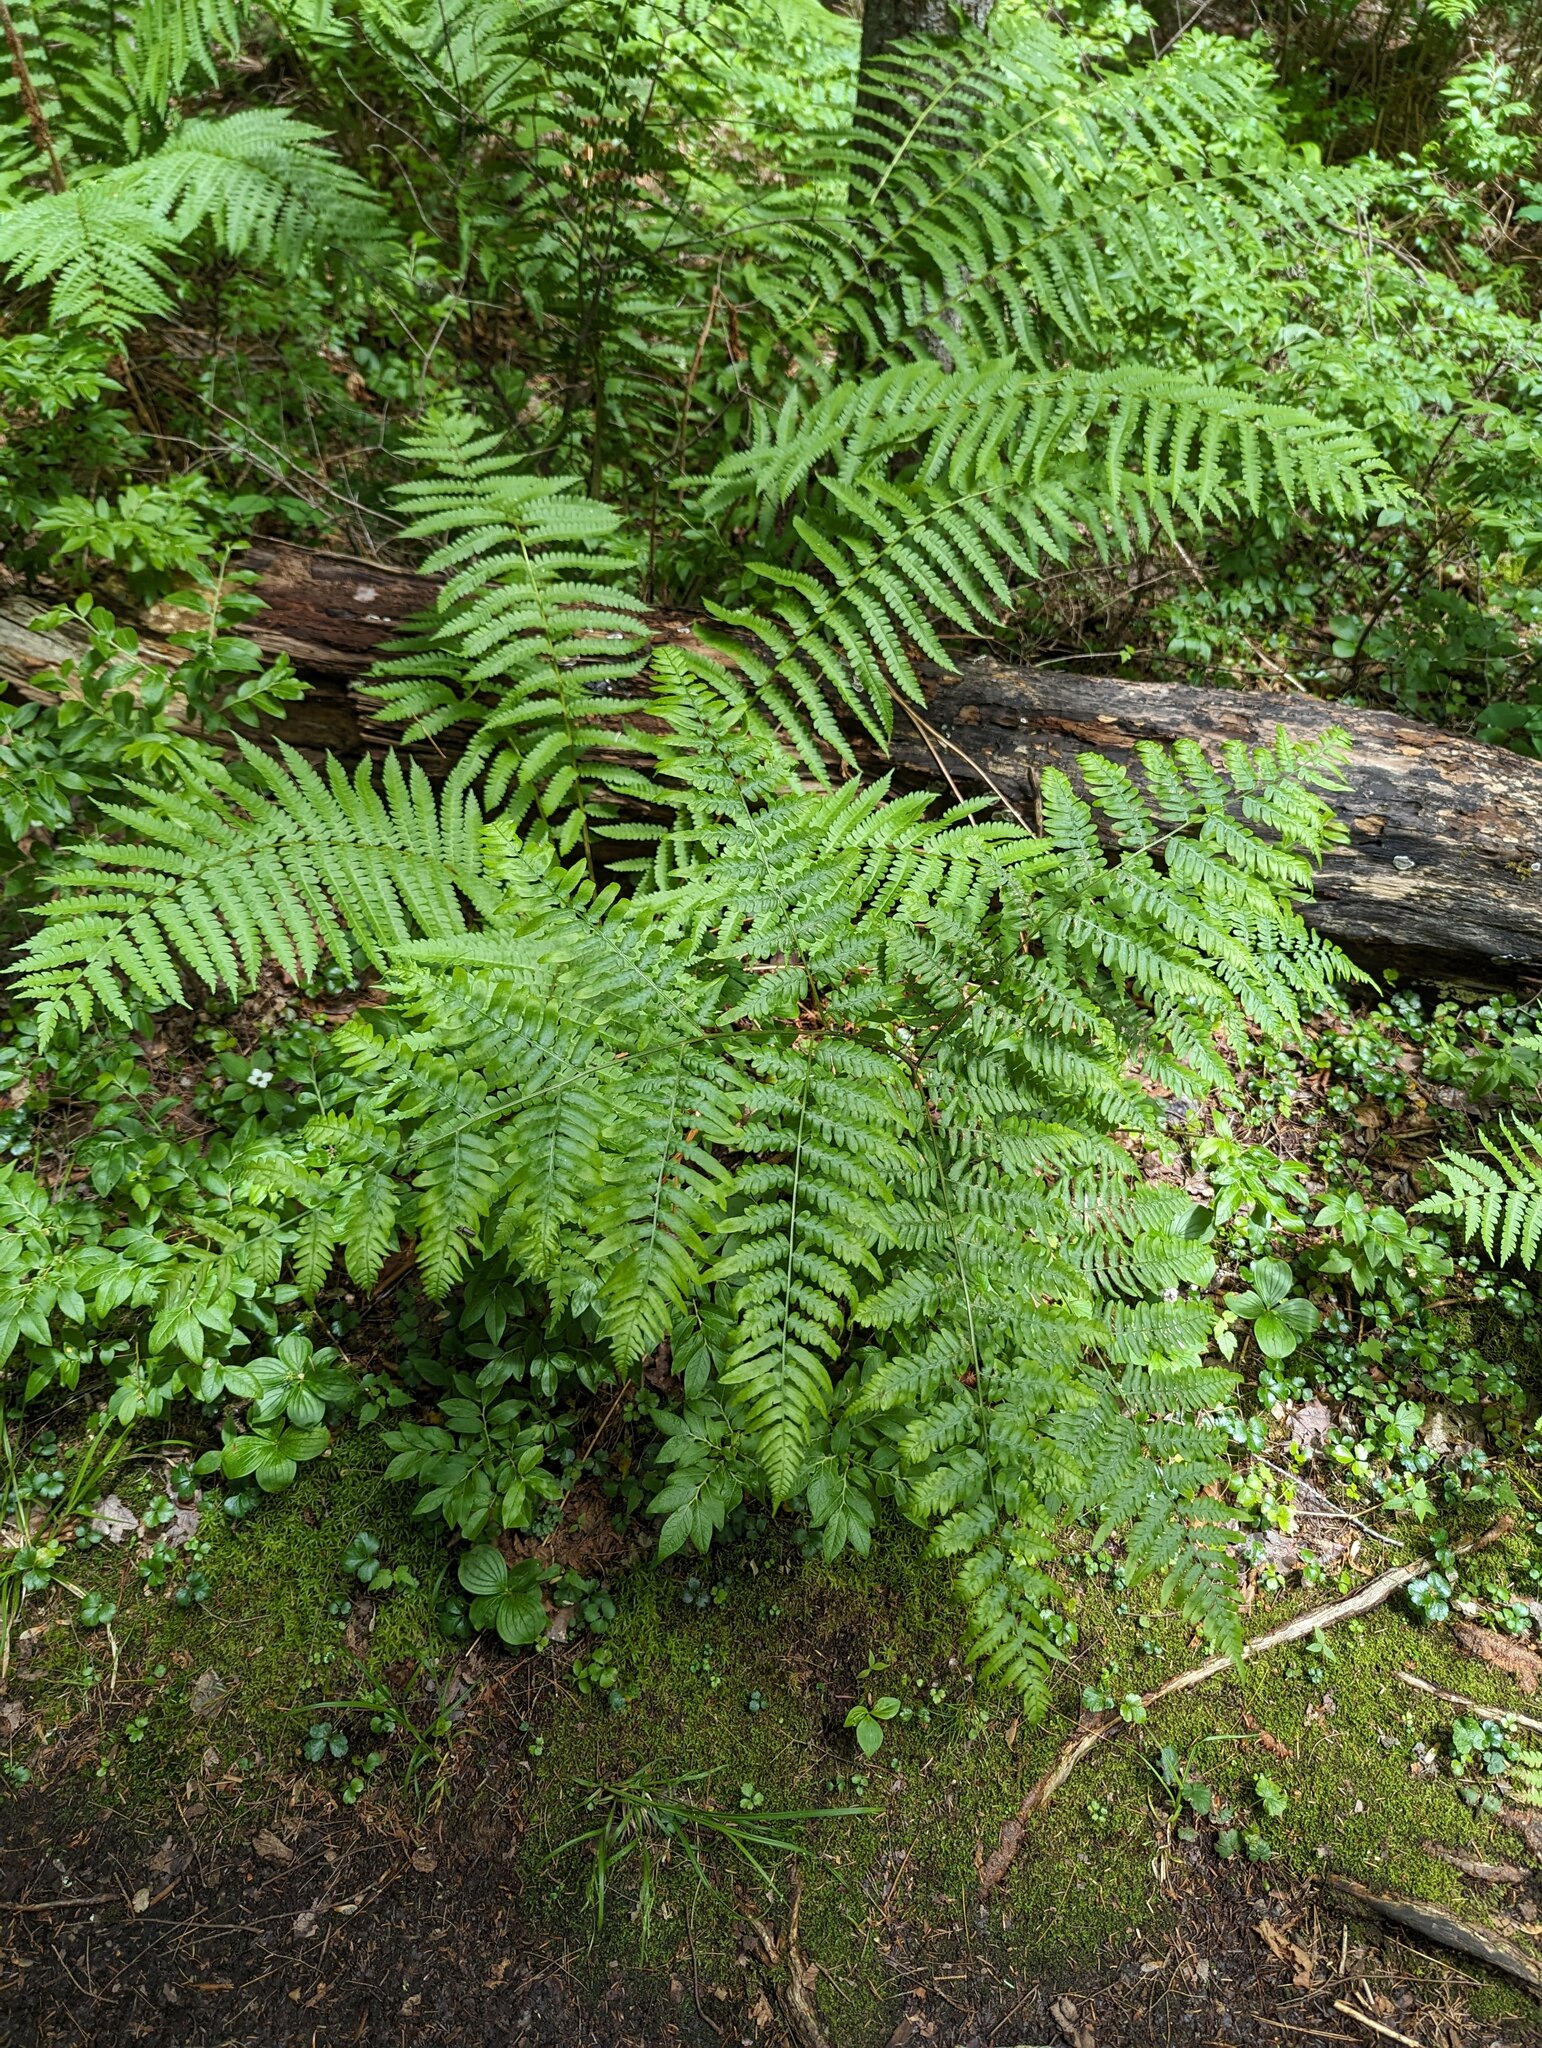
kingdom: Plantae
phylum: Tracheophyta
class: Polypodiopsida
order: Polypodiales
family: Dennstaedtiaceae
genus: Pteridium
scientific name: Pteridium aquilinum
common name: Bracken
